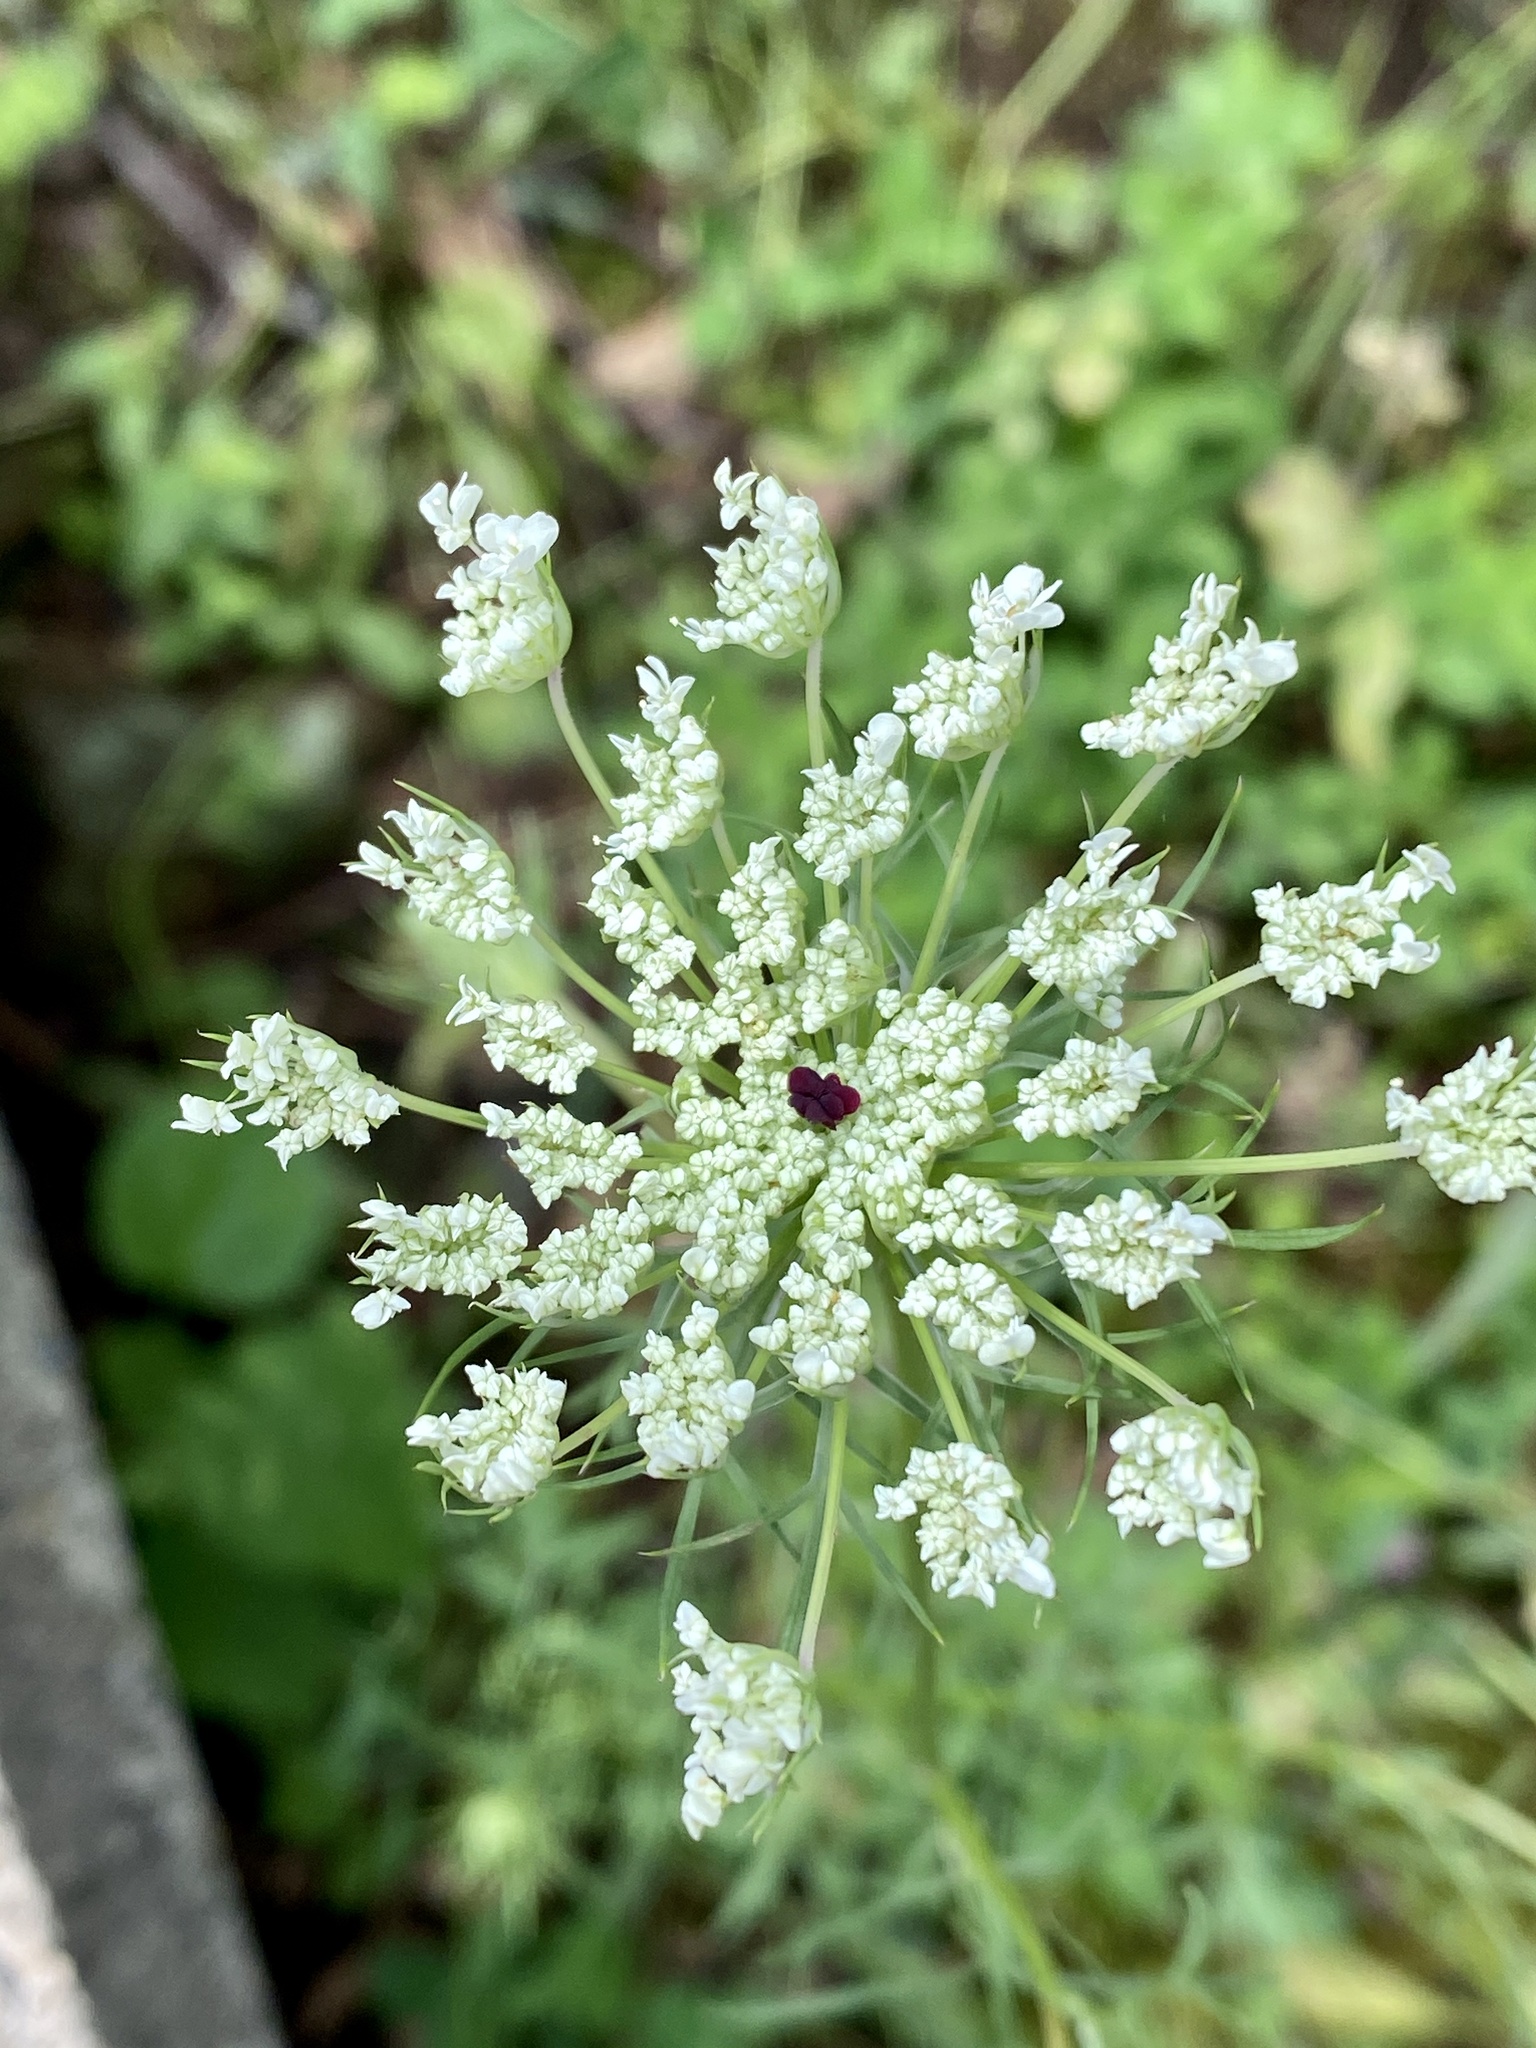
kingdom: Plantae
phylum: Tracheophyta
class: Magnoliopsida
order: Apiales
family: Apiaceae
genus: Daucus
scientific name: Daucus carota
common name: Wild carrot
